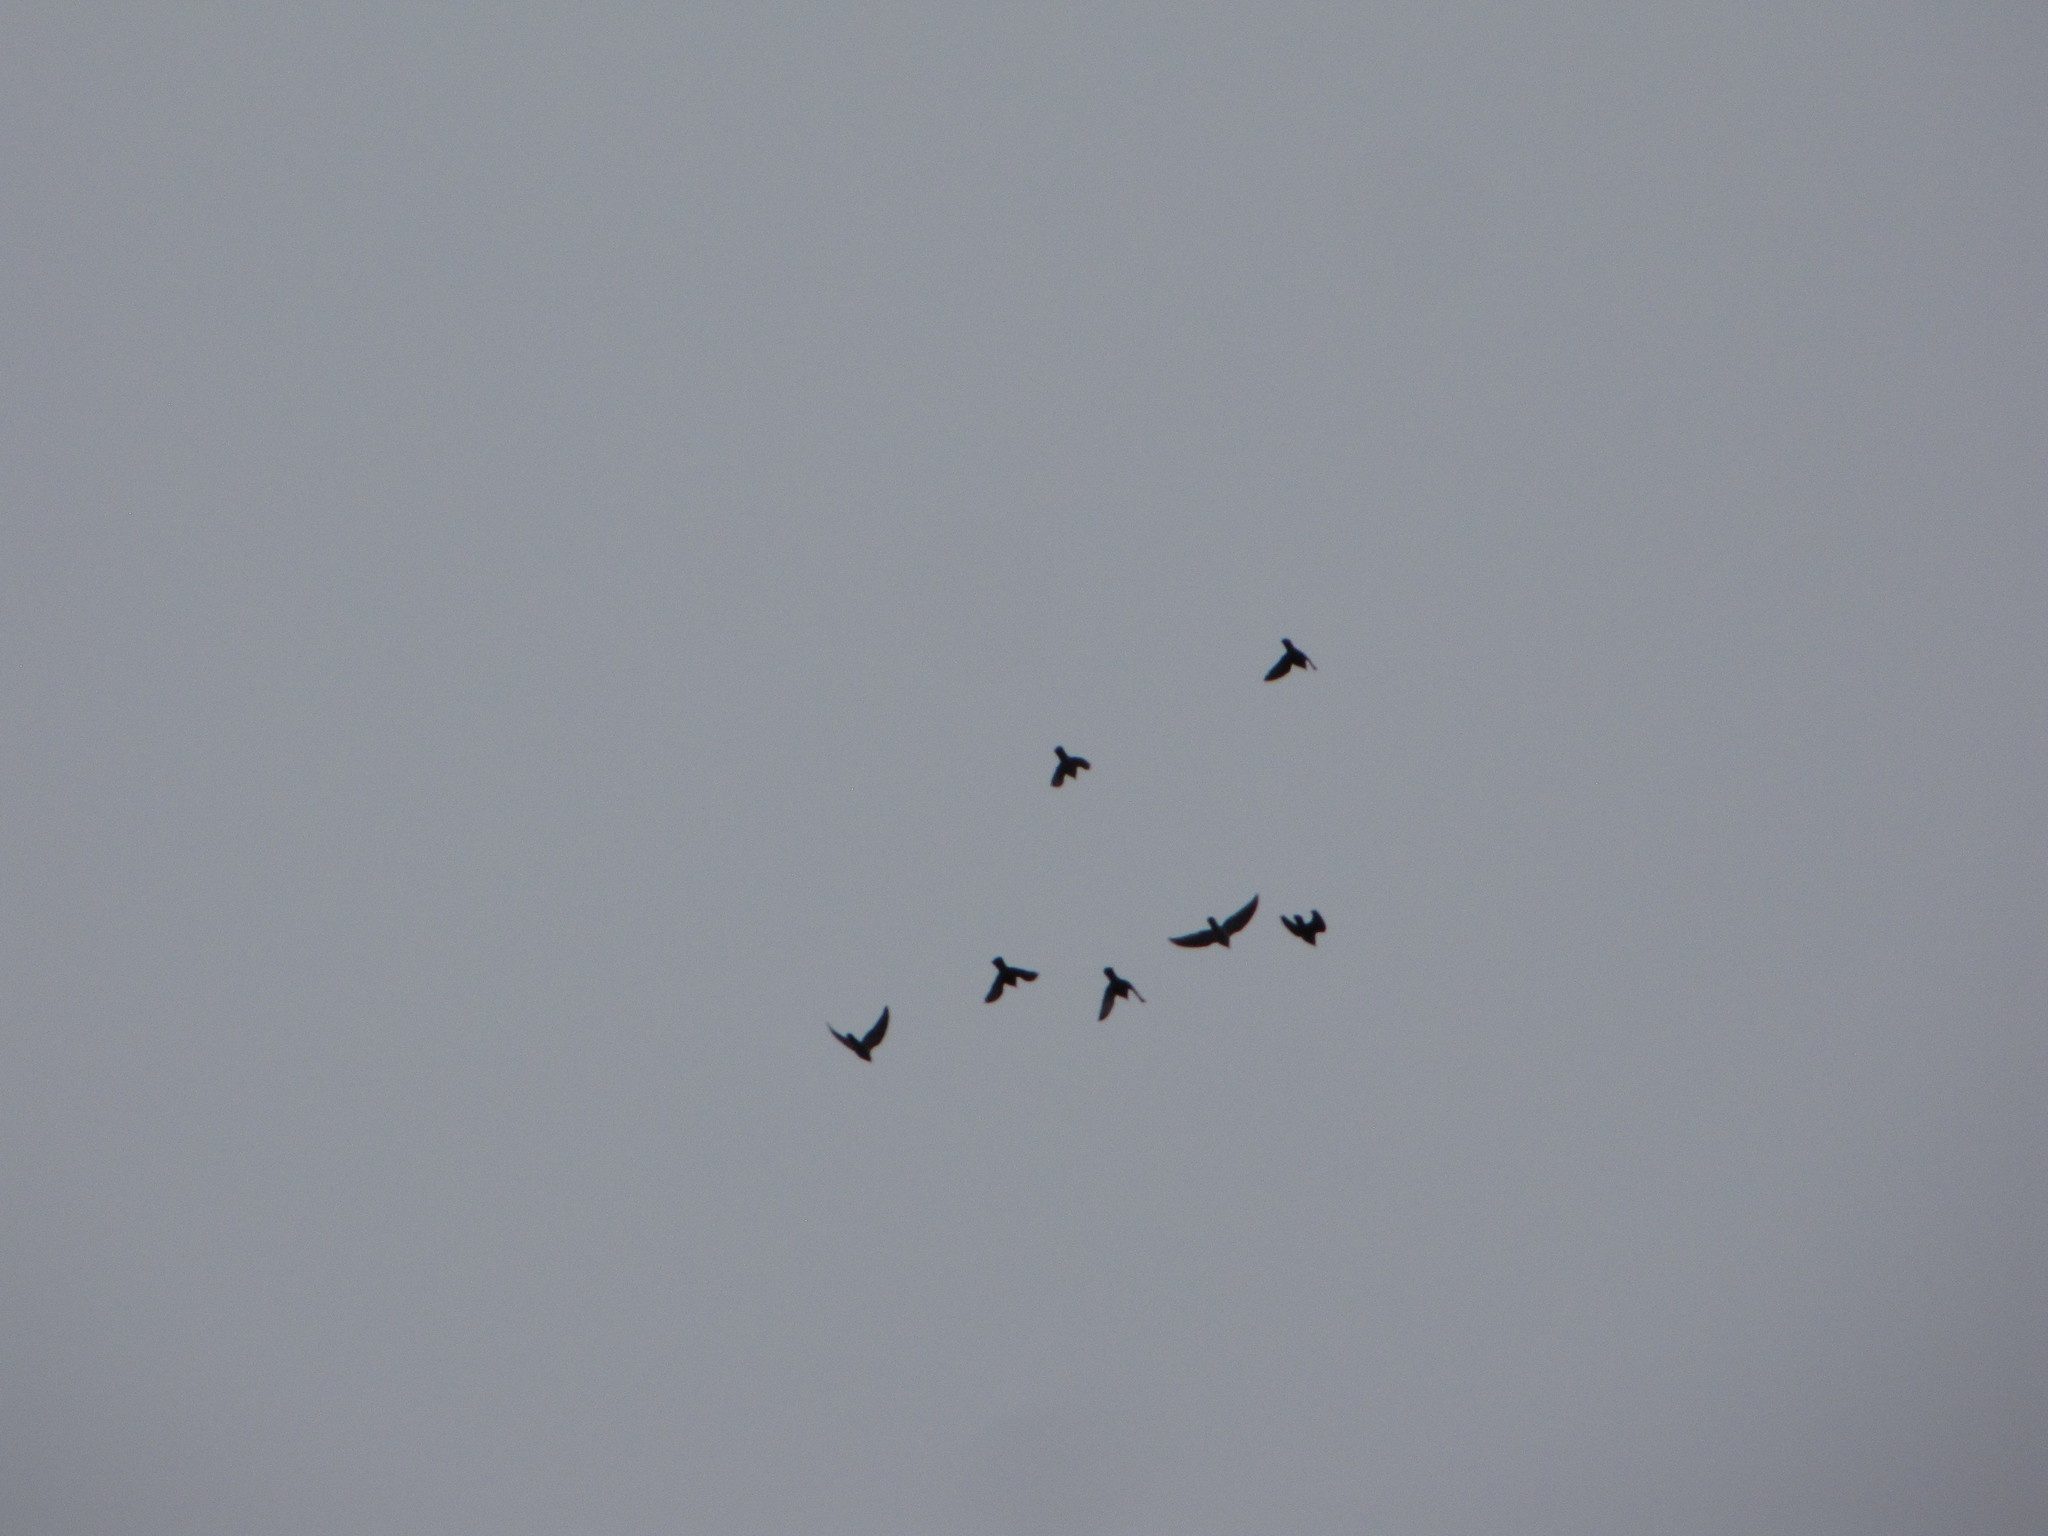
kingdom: Animalia
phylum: Chordata
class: Aves
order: Passeriformes
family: Corvidae
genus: Corvus
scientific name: Corvus brachyrhynchos
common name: American crow
